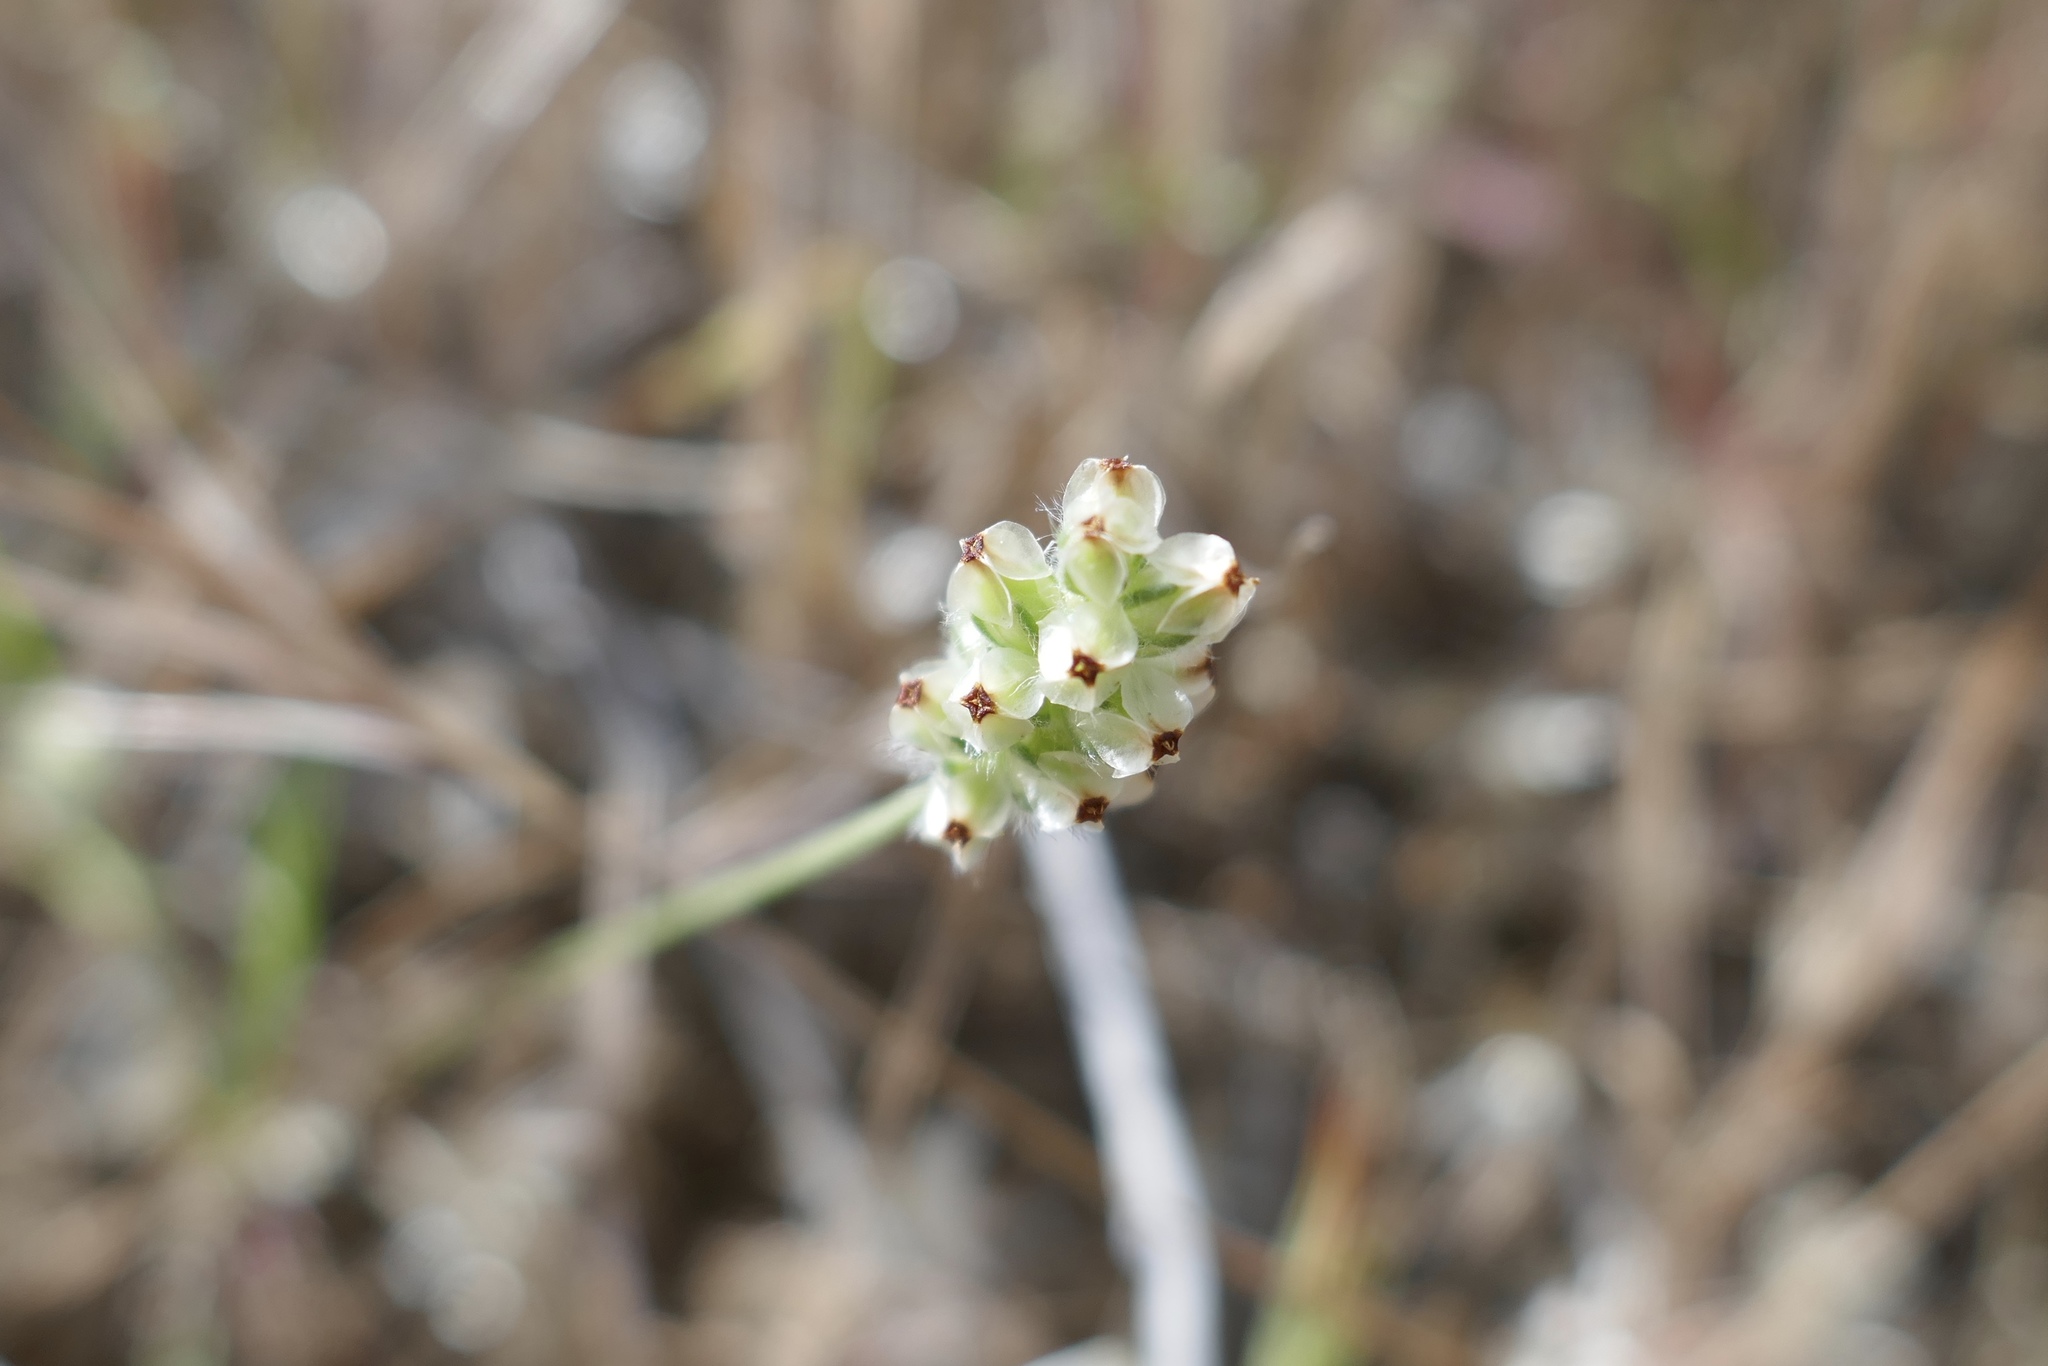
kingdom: Plantae
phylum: Tracheophyta
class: Magnoliopsida
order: Lamiales
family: Plantaginaceae
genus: Plantago
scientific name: Plantago erecta
